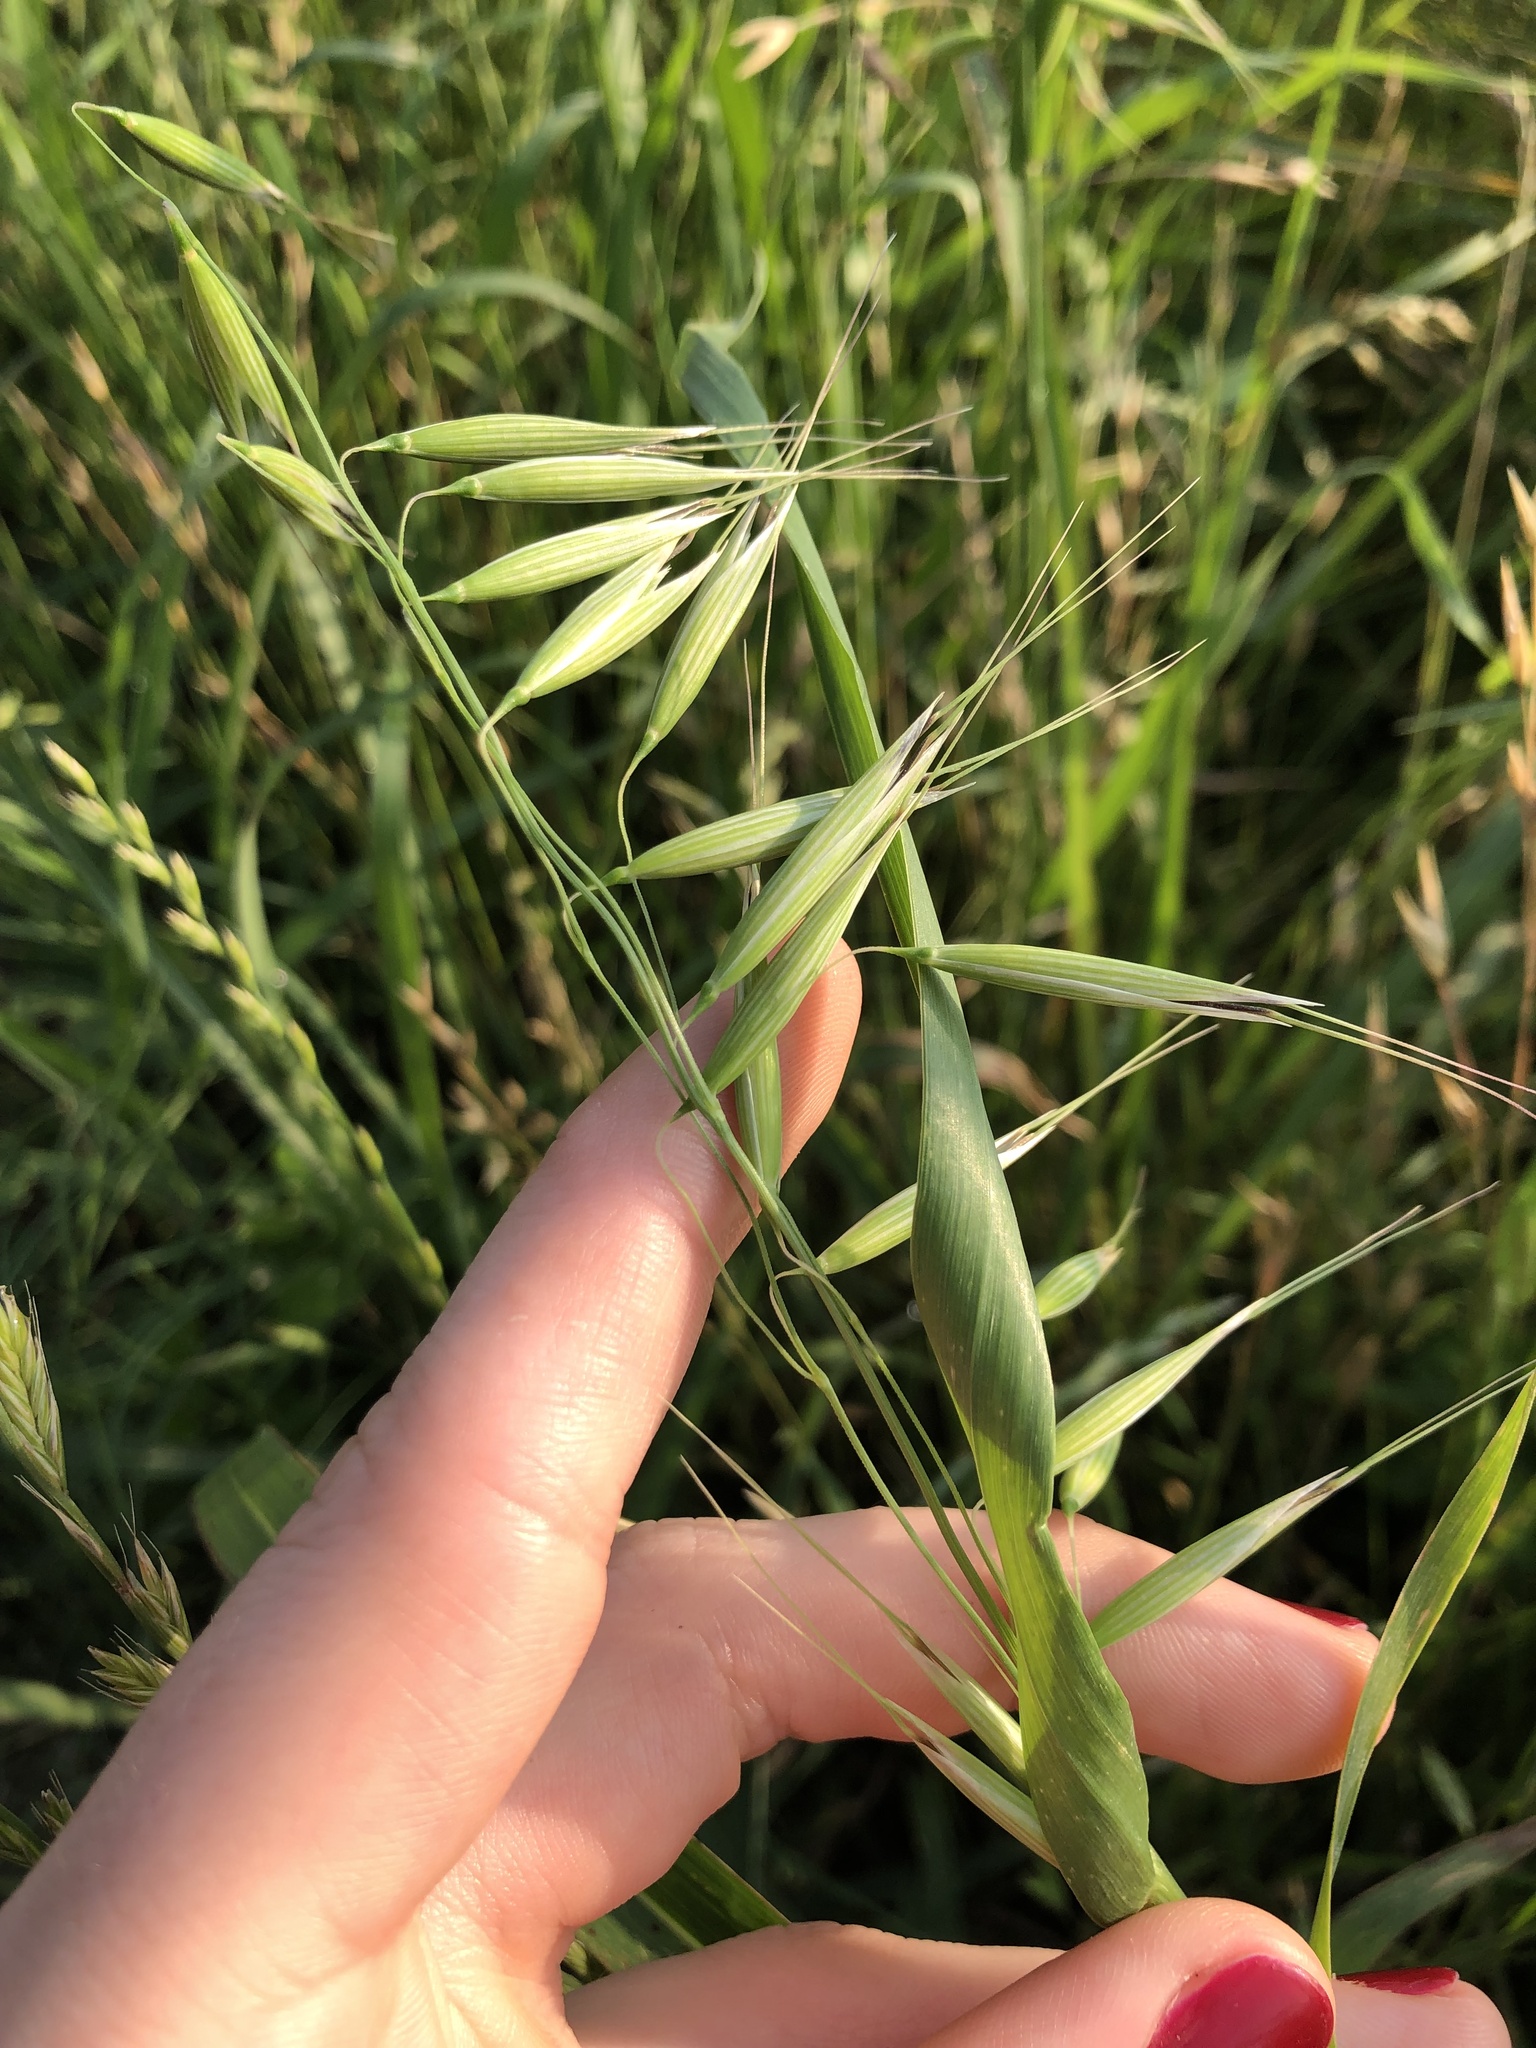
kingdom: Plantae
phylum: Tracheophyta
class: Liliopsida
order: Poales
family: Poaceae
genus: Avena
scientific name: Avena fatua
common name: Wild oat
